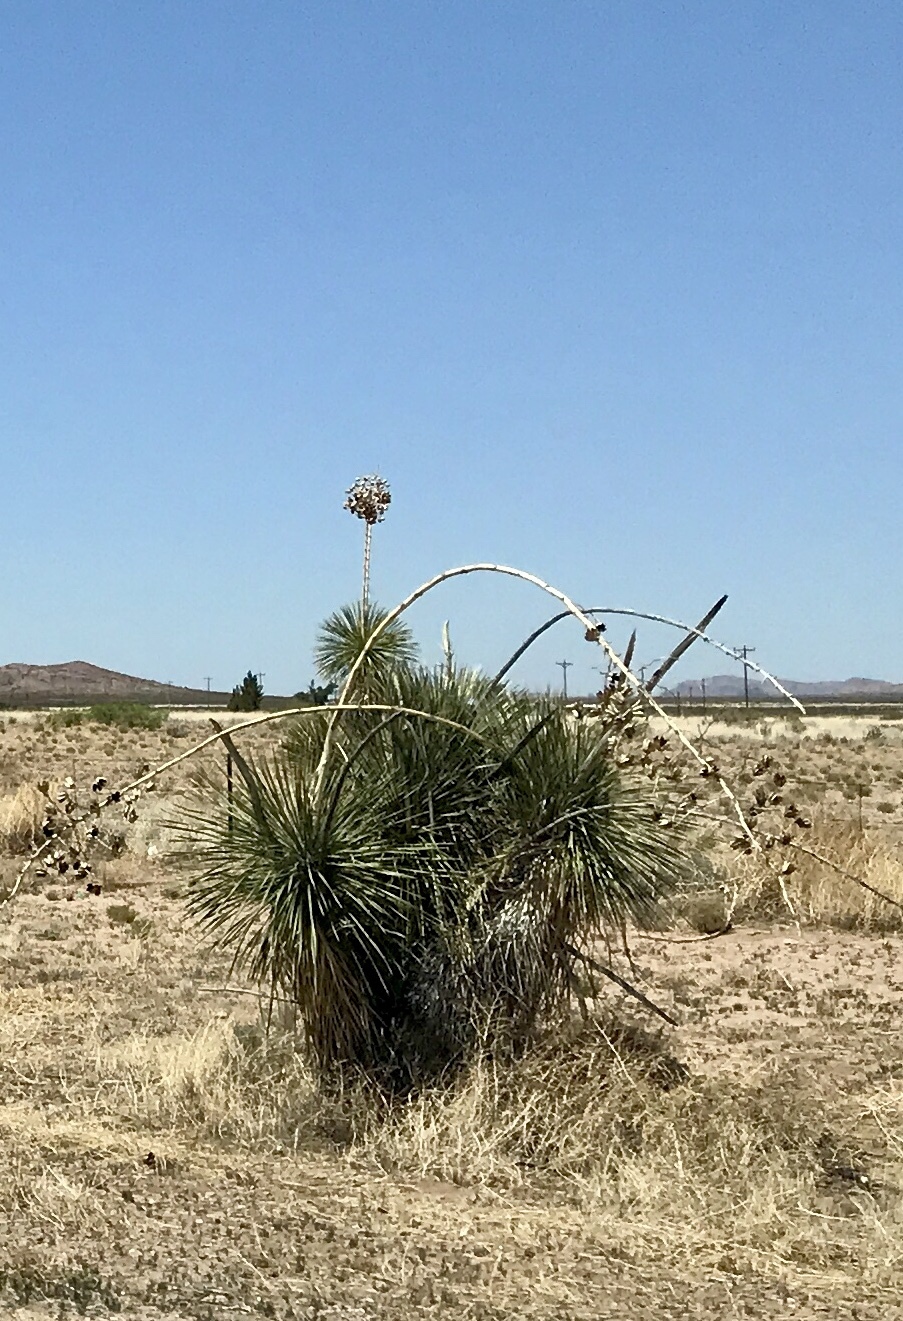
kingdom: Plantae
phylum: Tracheophyta
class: Liliopsida
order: Asparagales
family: Asparagaceae
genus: Yucca
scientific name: Yucca elata
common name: Palmella
